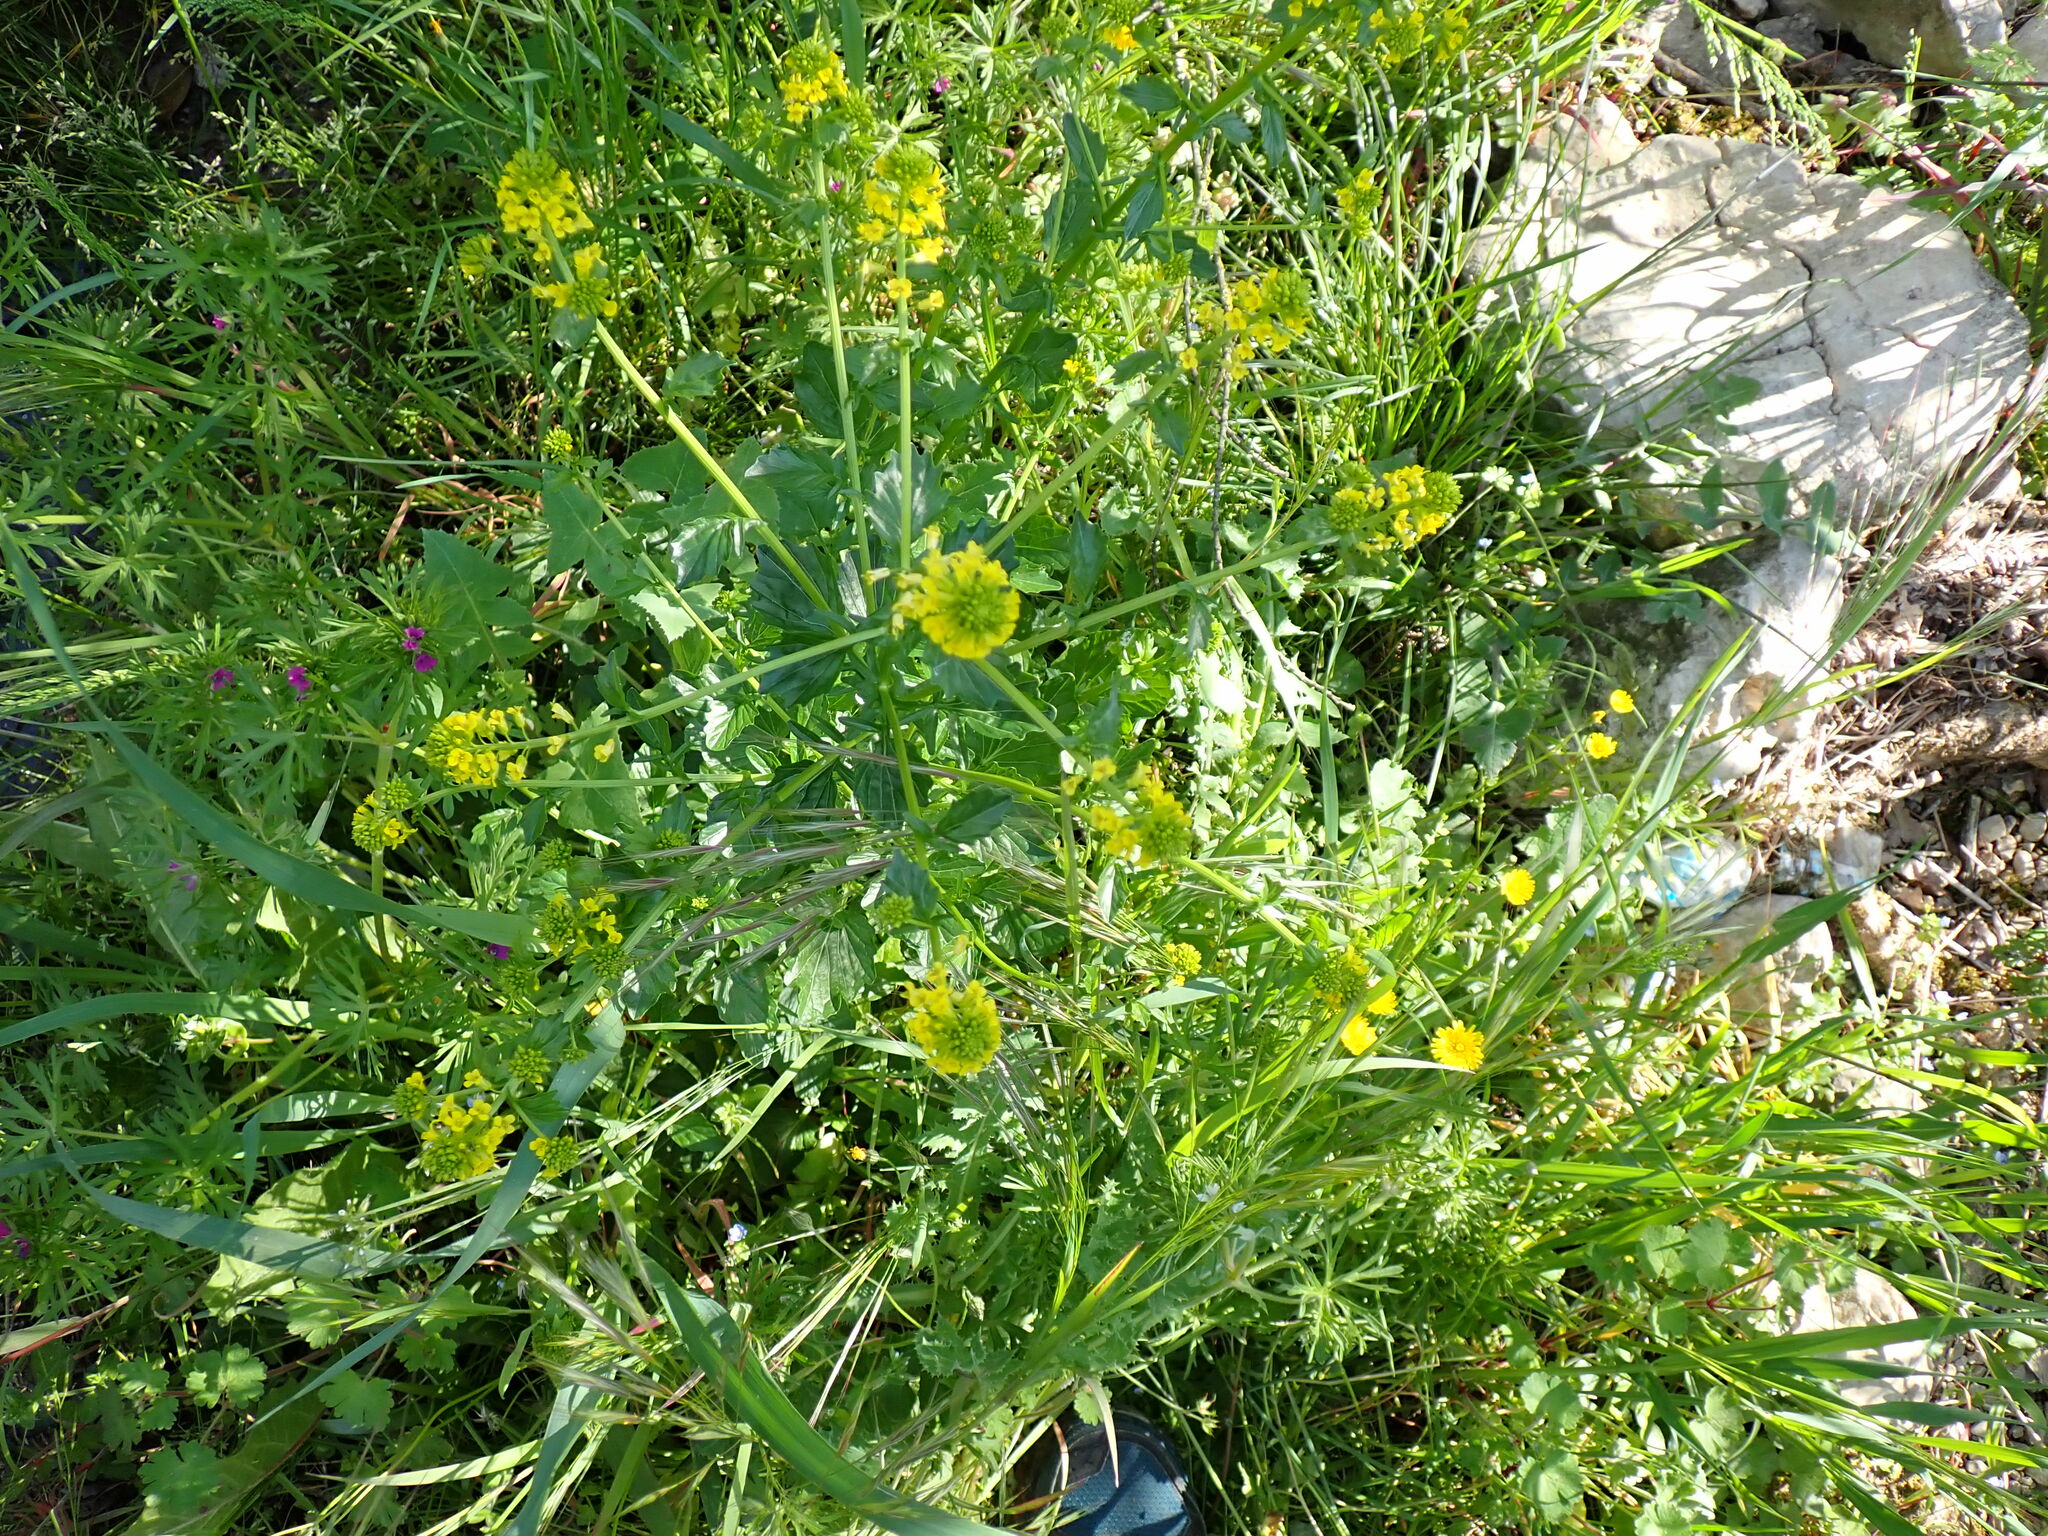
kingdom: Plantae
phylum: Tracheophyta
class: Magnoliopsida
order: Brassicales
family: Brassicaceae
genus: Barbarea
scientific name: Barbarea vulgaris
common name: Cressy-greens
